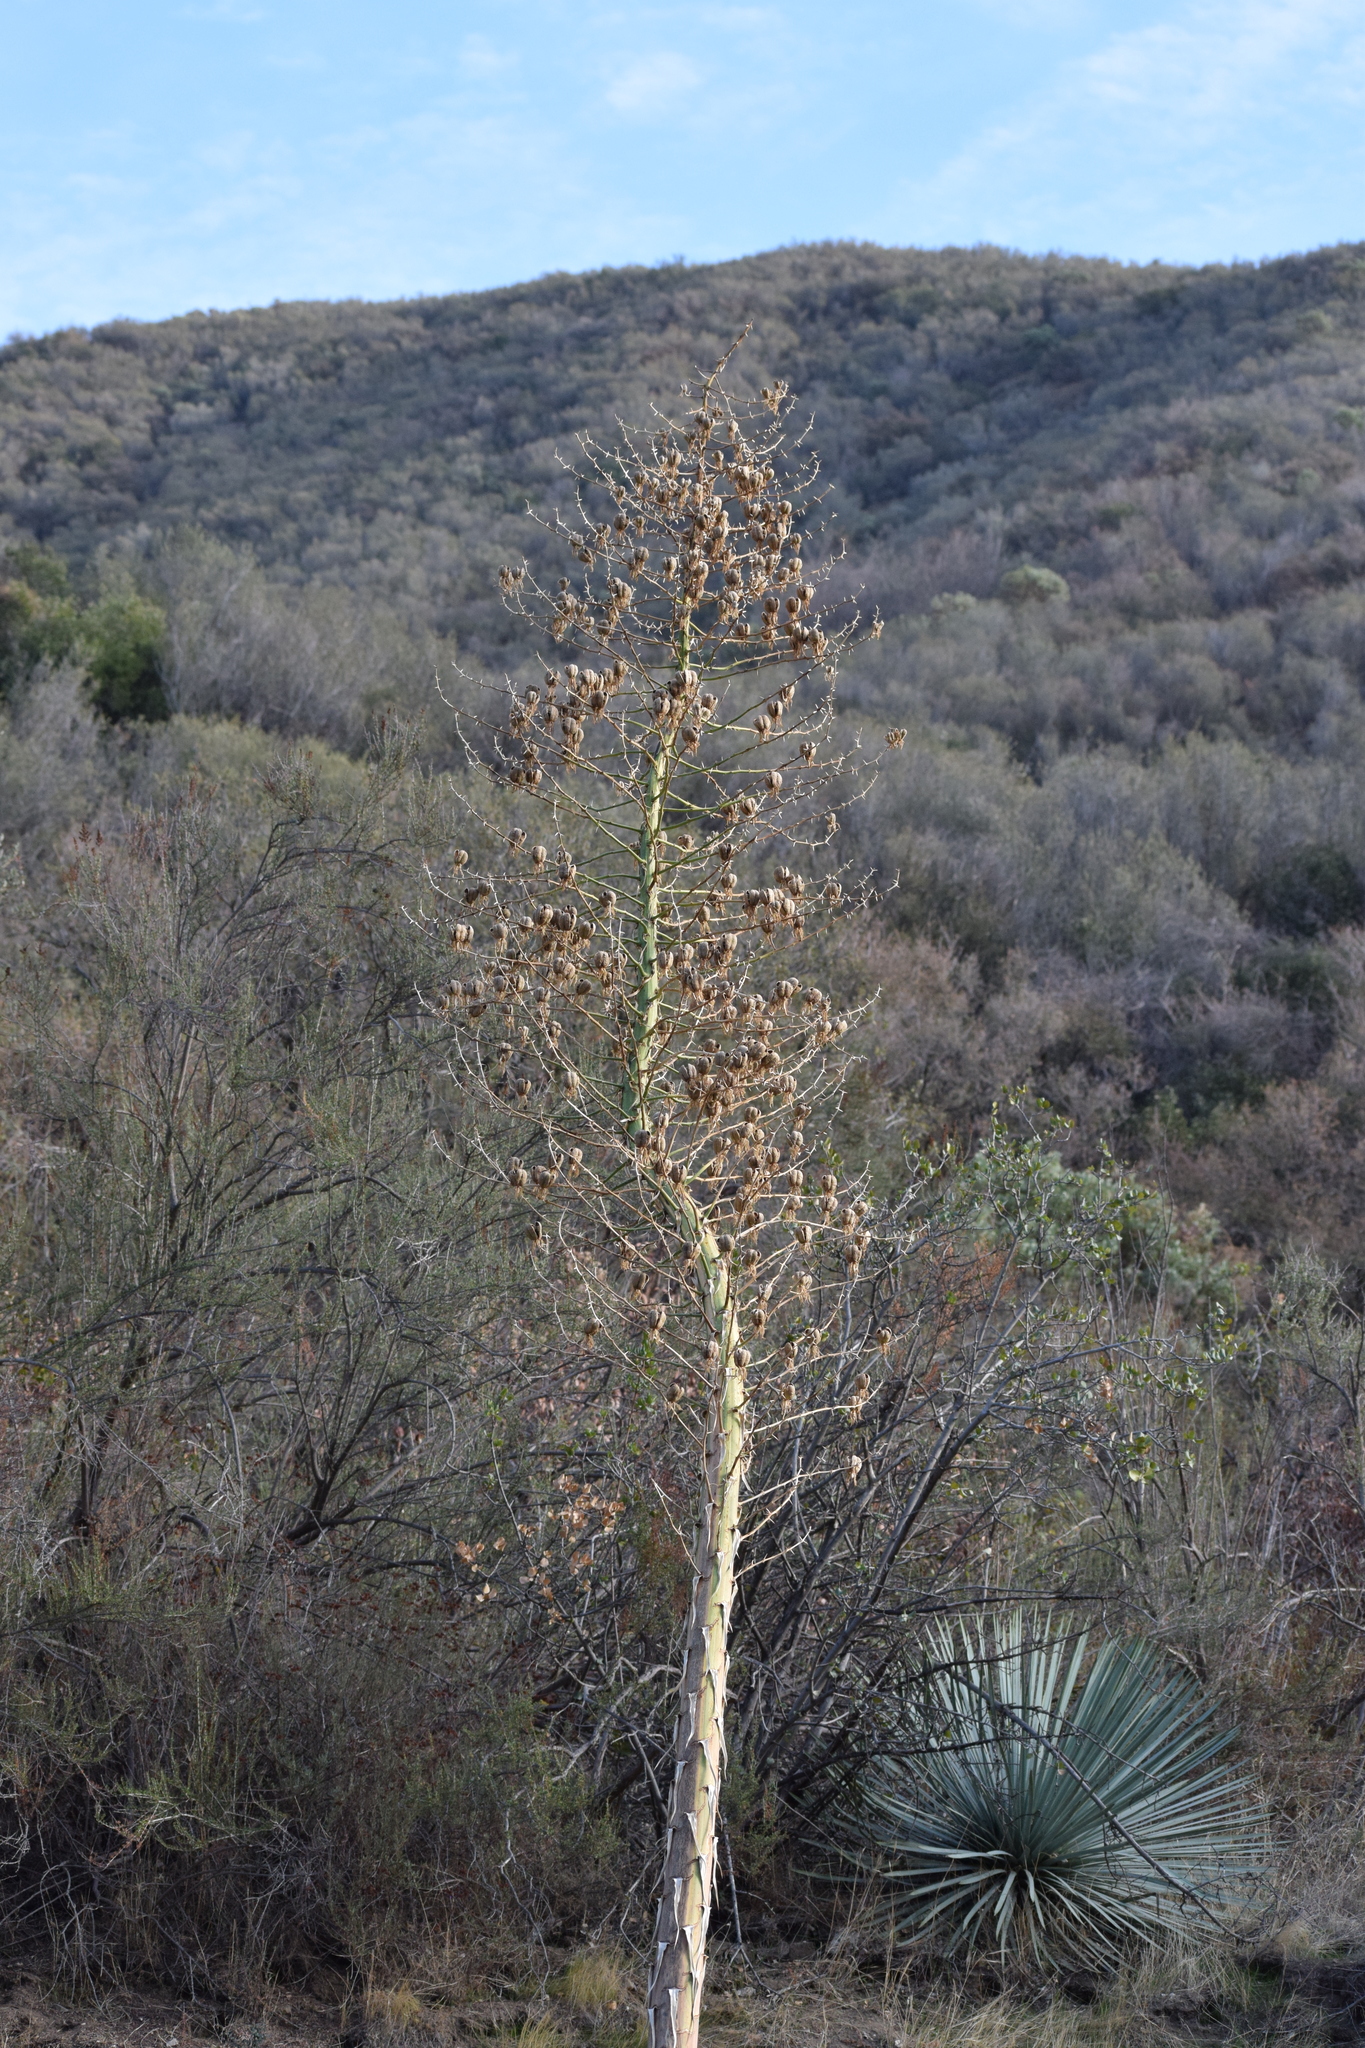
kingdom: Plantae
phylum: Tracheophyta
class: Liliopsida
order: Asparagales
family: Asparagaceae
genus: Hesperoyucca
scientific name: Hesperoyucca whipplei
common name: Our lord's-candle
